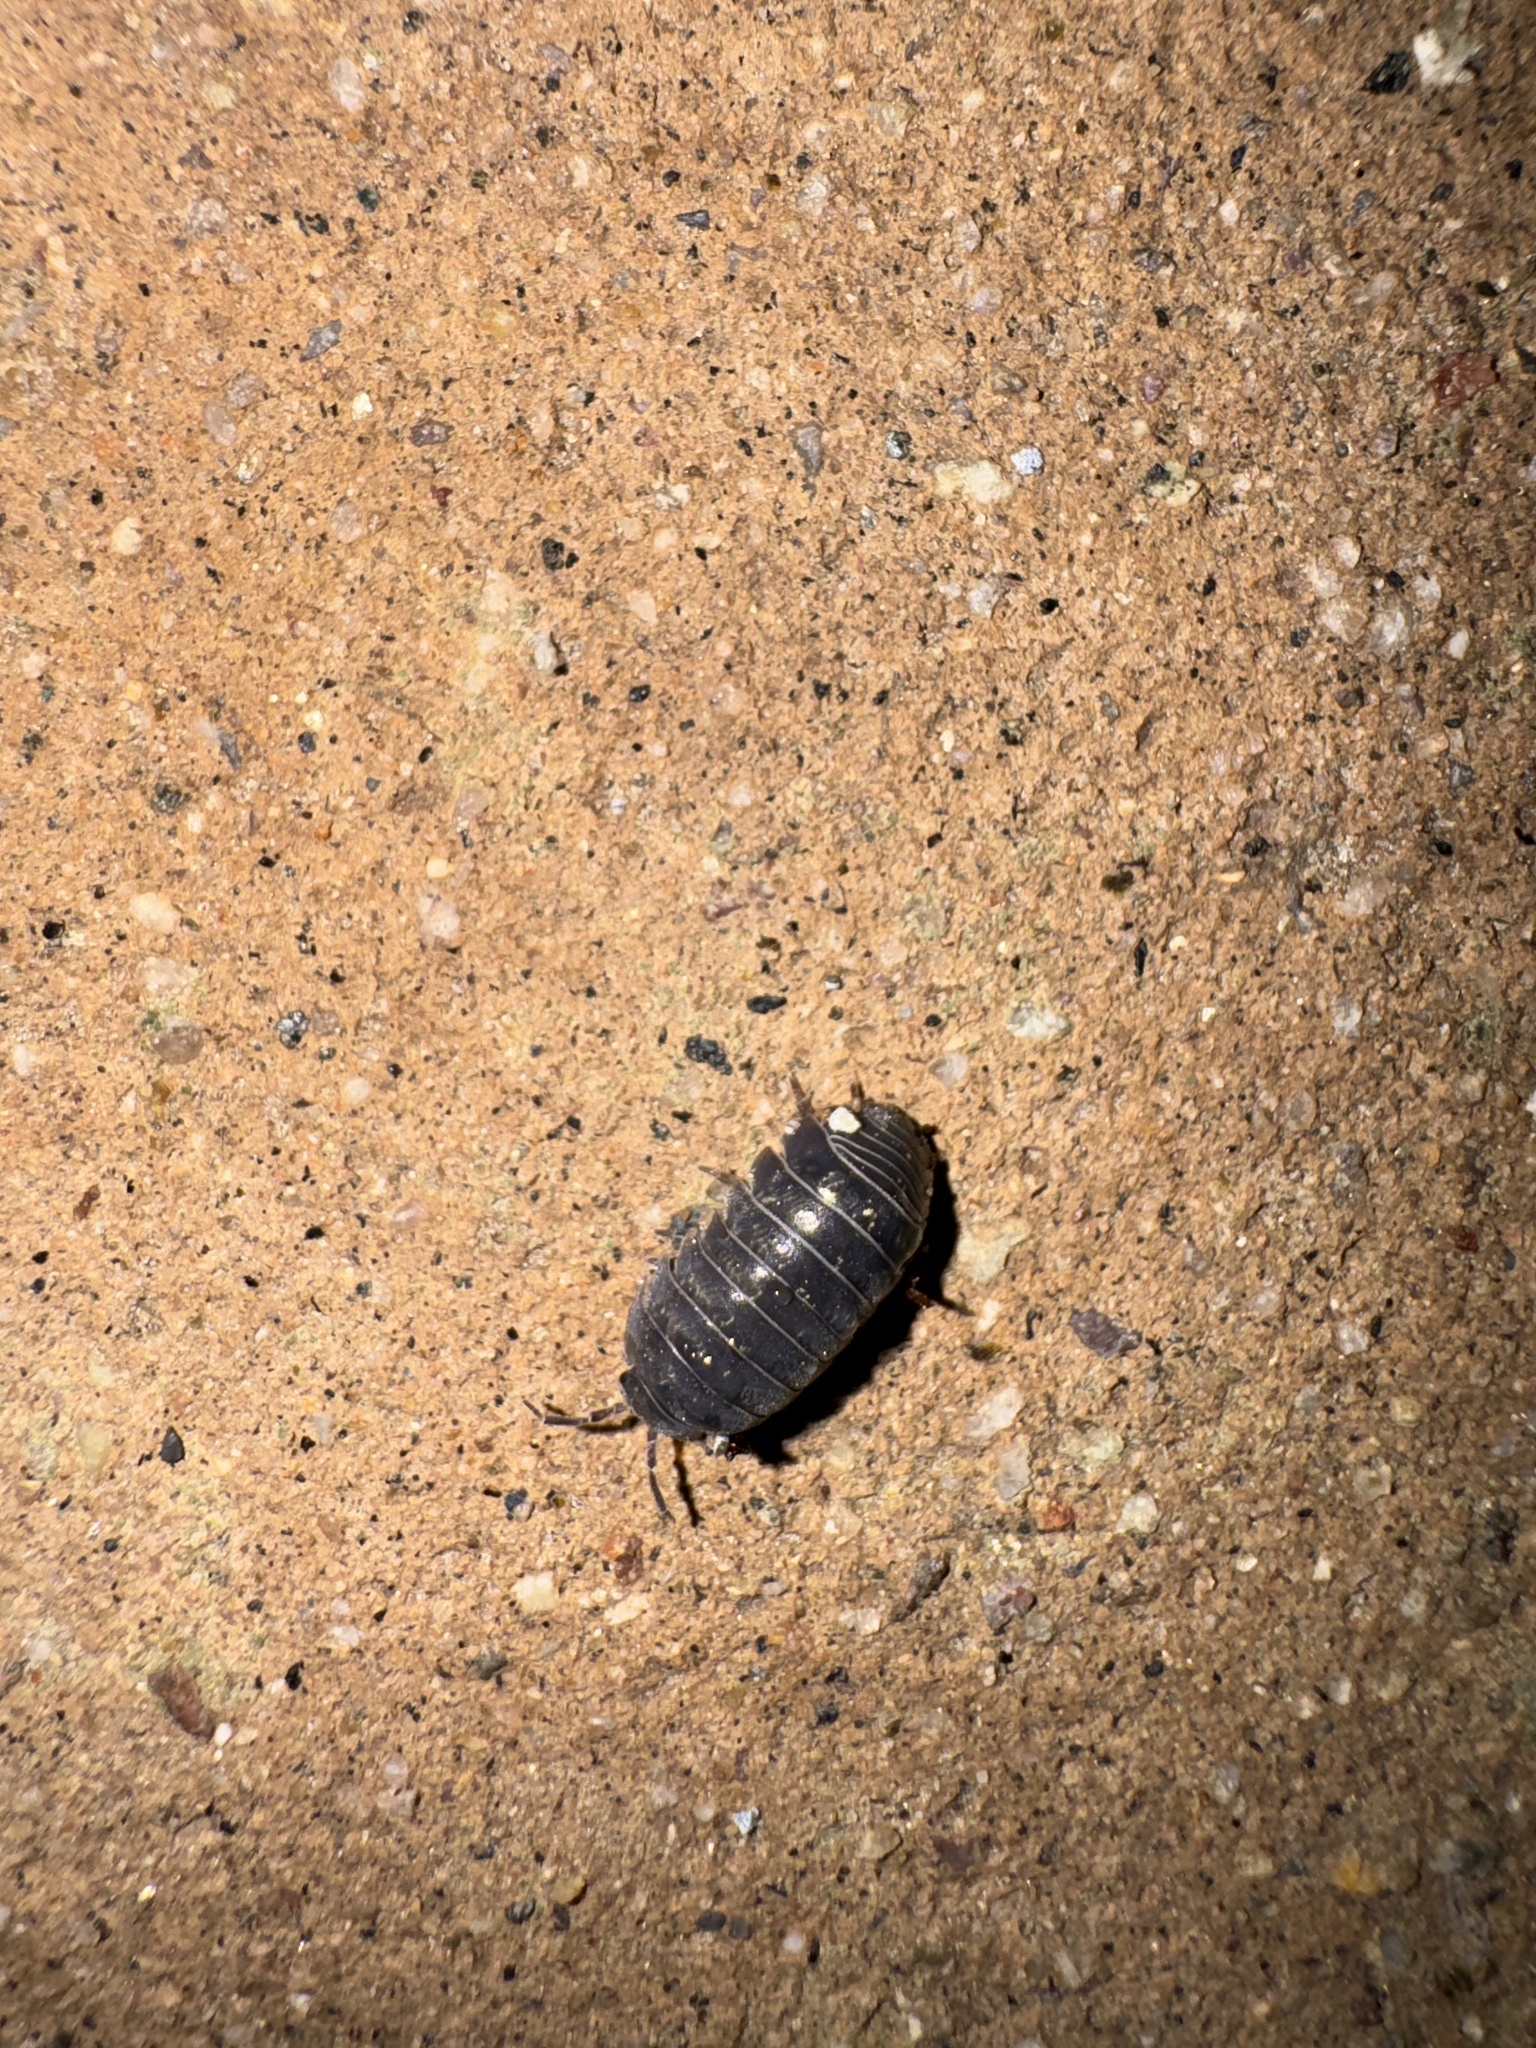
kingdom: Animalia
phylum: Arthropoda
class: Malacostraca
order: Isopoda
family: Armadillidiidae
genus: Armadillidium
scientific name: Armadillidium vulgare
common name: Common pill woodlouse
